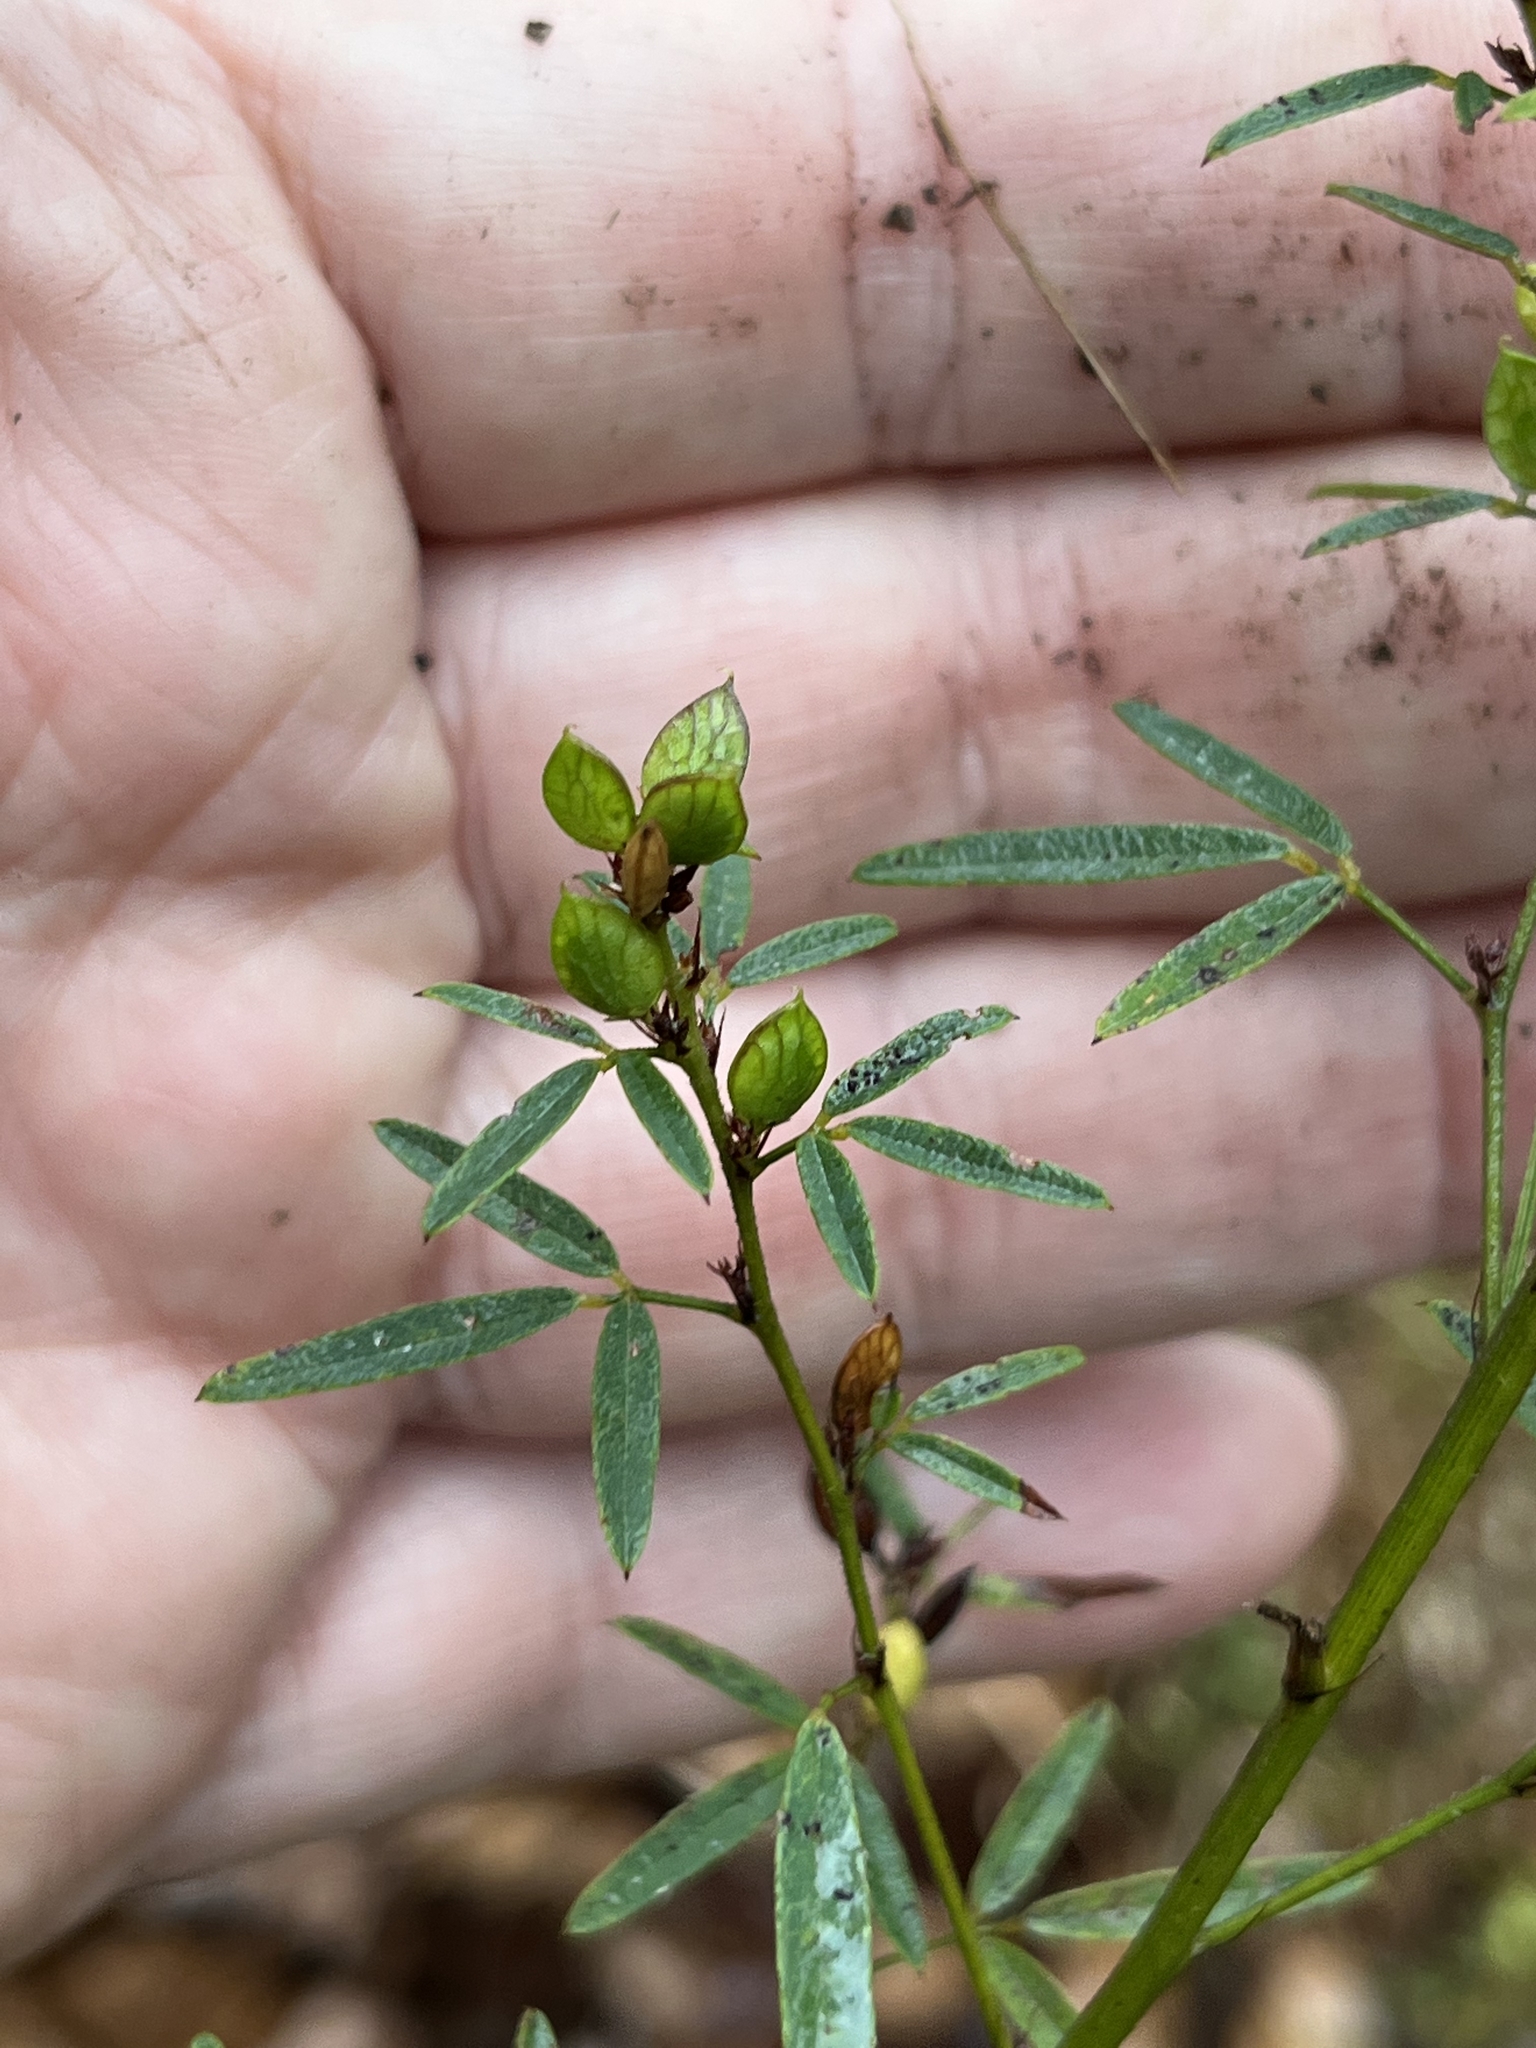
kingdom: Plantae
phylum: Tracheophyta
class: Magnoliopsida
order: Fabales
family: Fabaceae
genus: Lespedeza
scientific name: Lespedeza virginica
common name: Slender bush-clover
